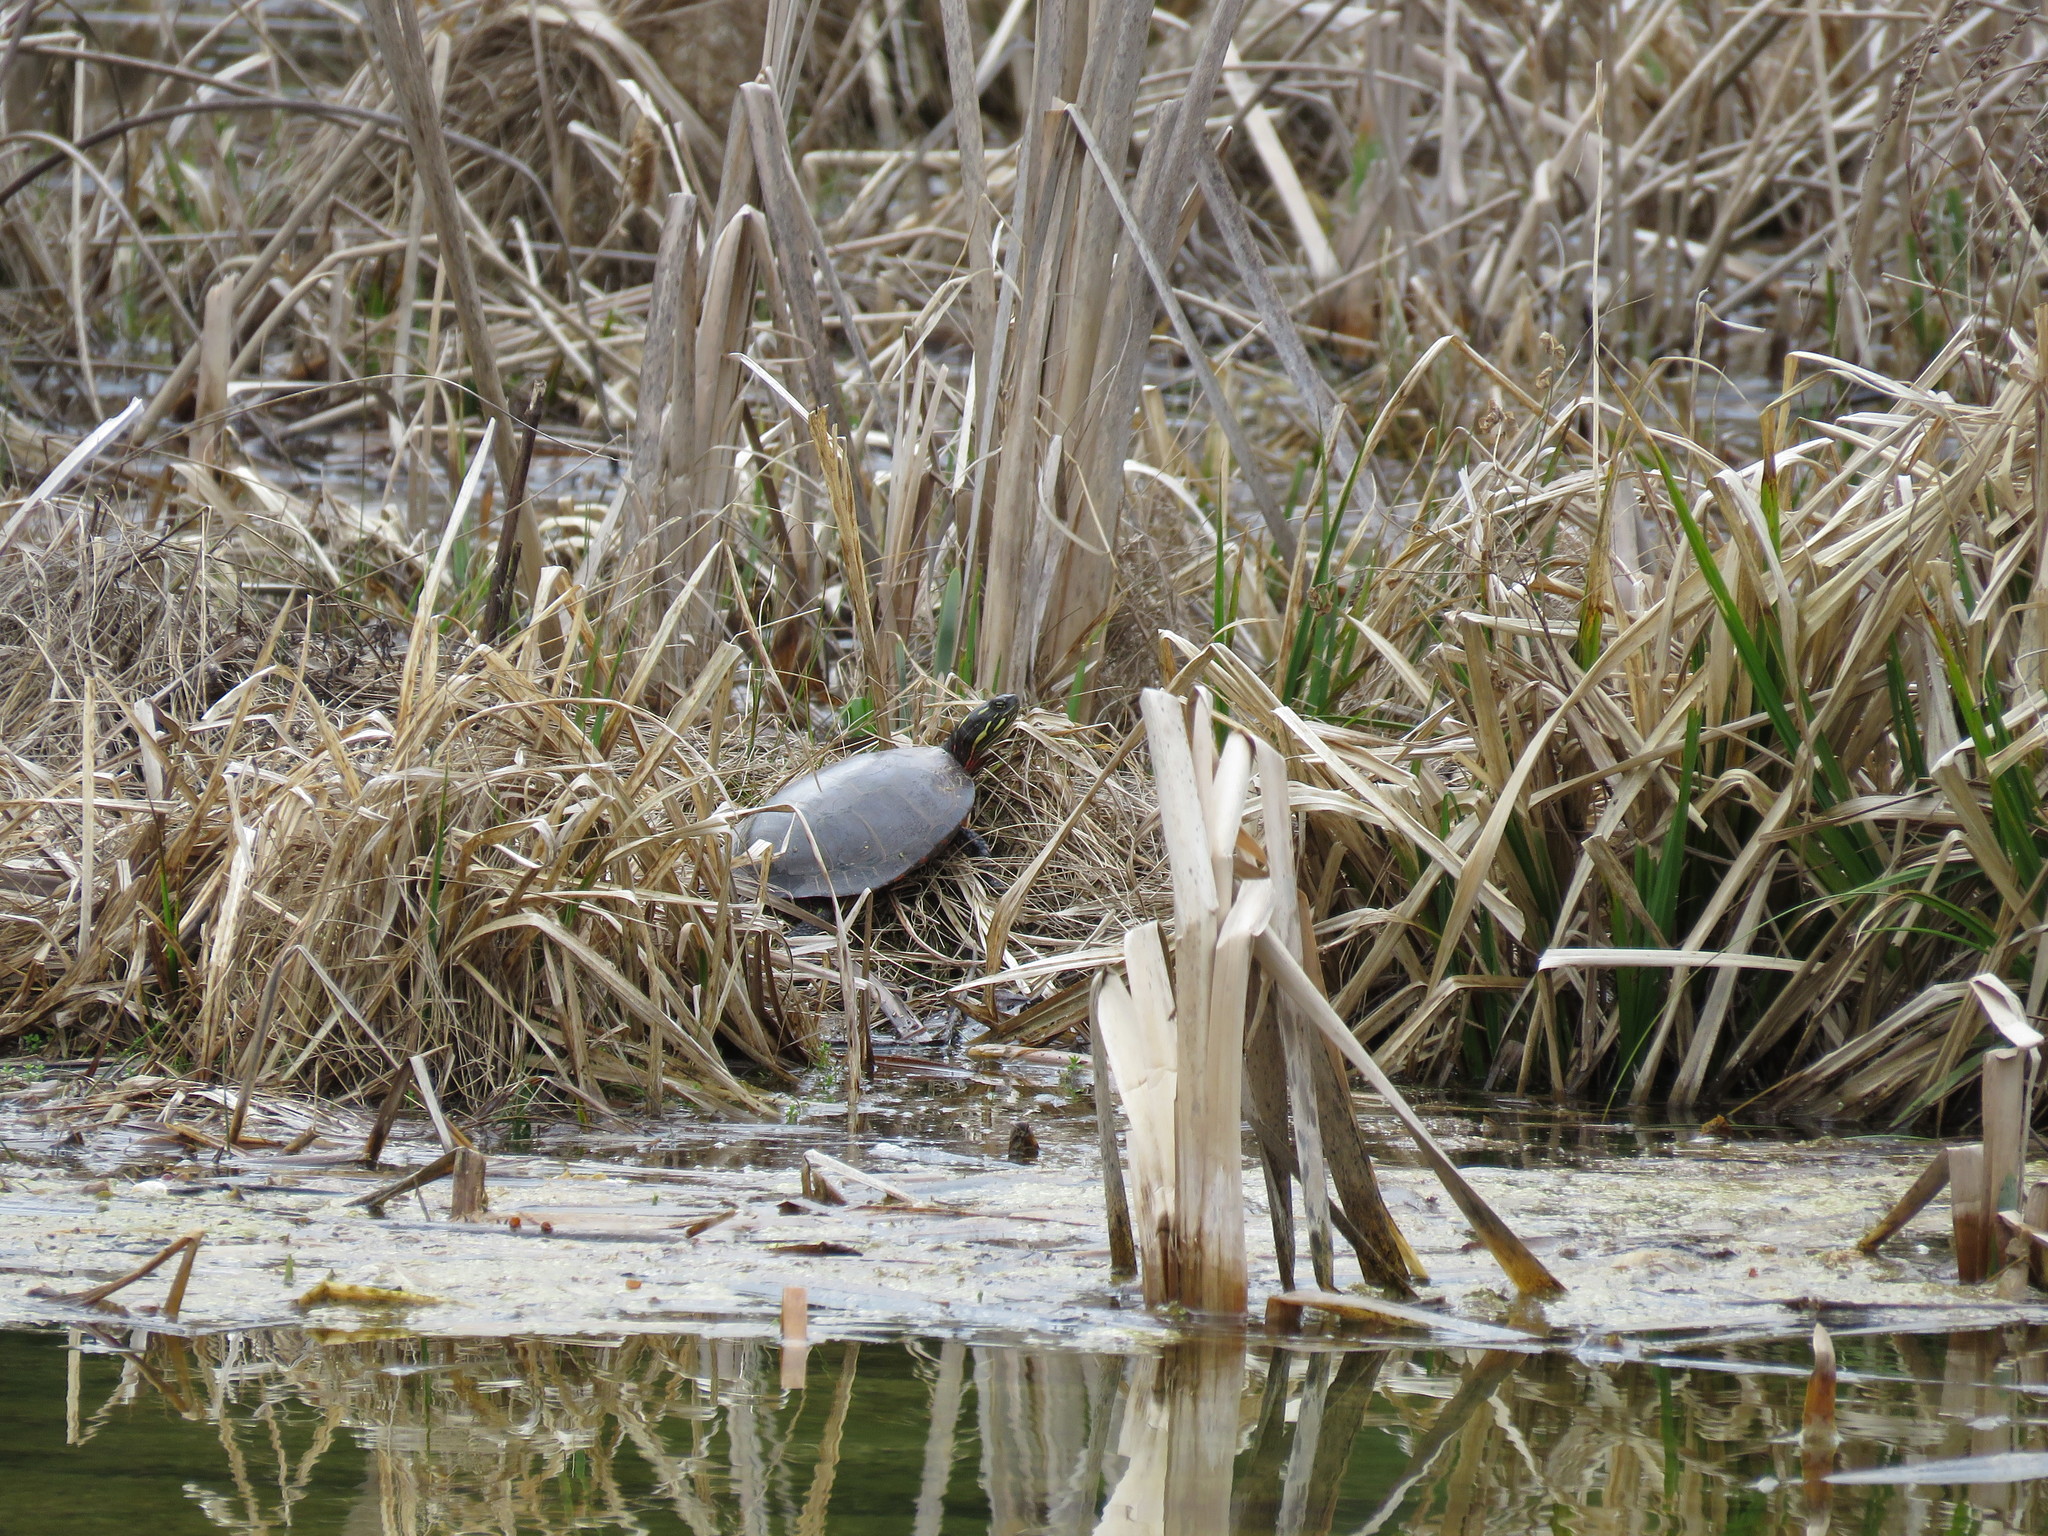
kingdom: Animalia
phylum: Chordata
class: Testudines
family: Emydidae
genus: Chrysemys
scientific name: Chrysemys picta
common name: Painted turtle
